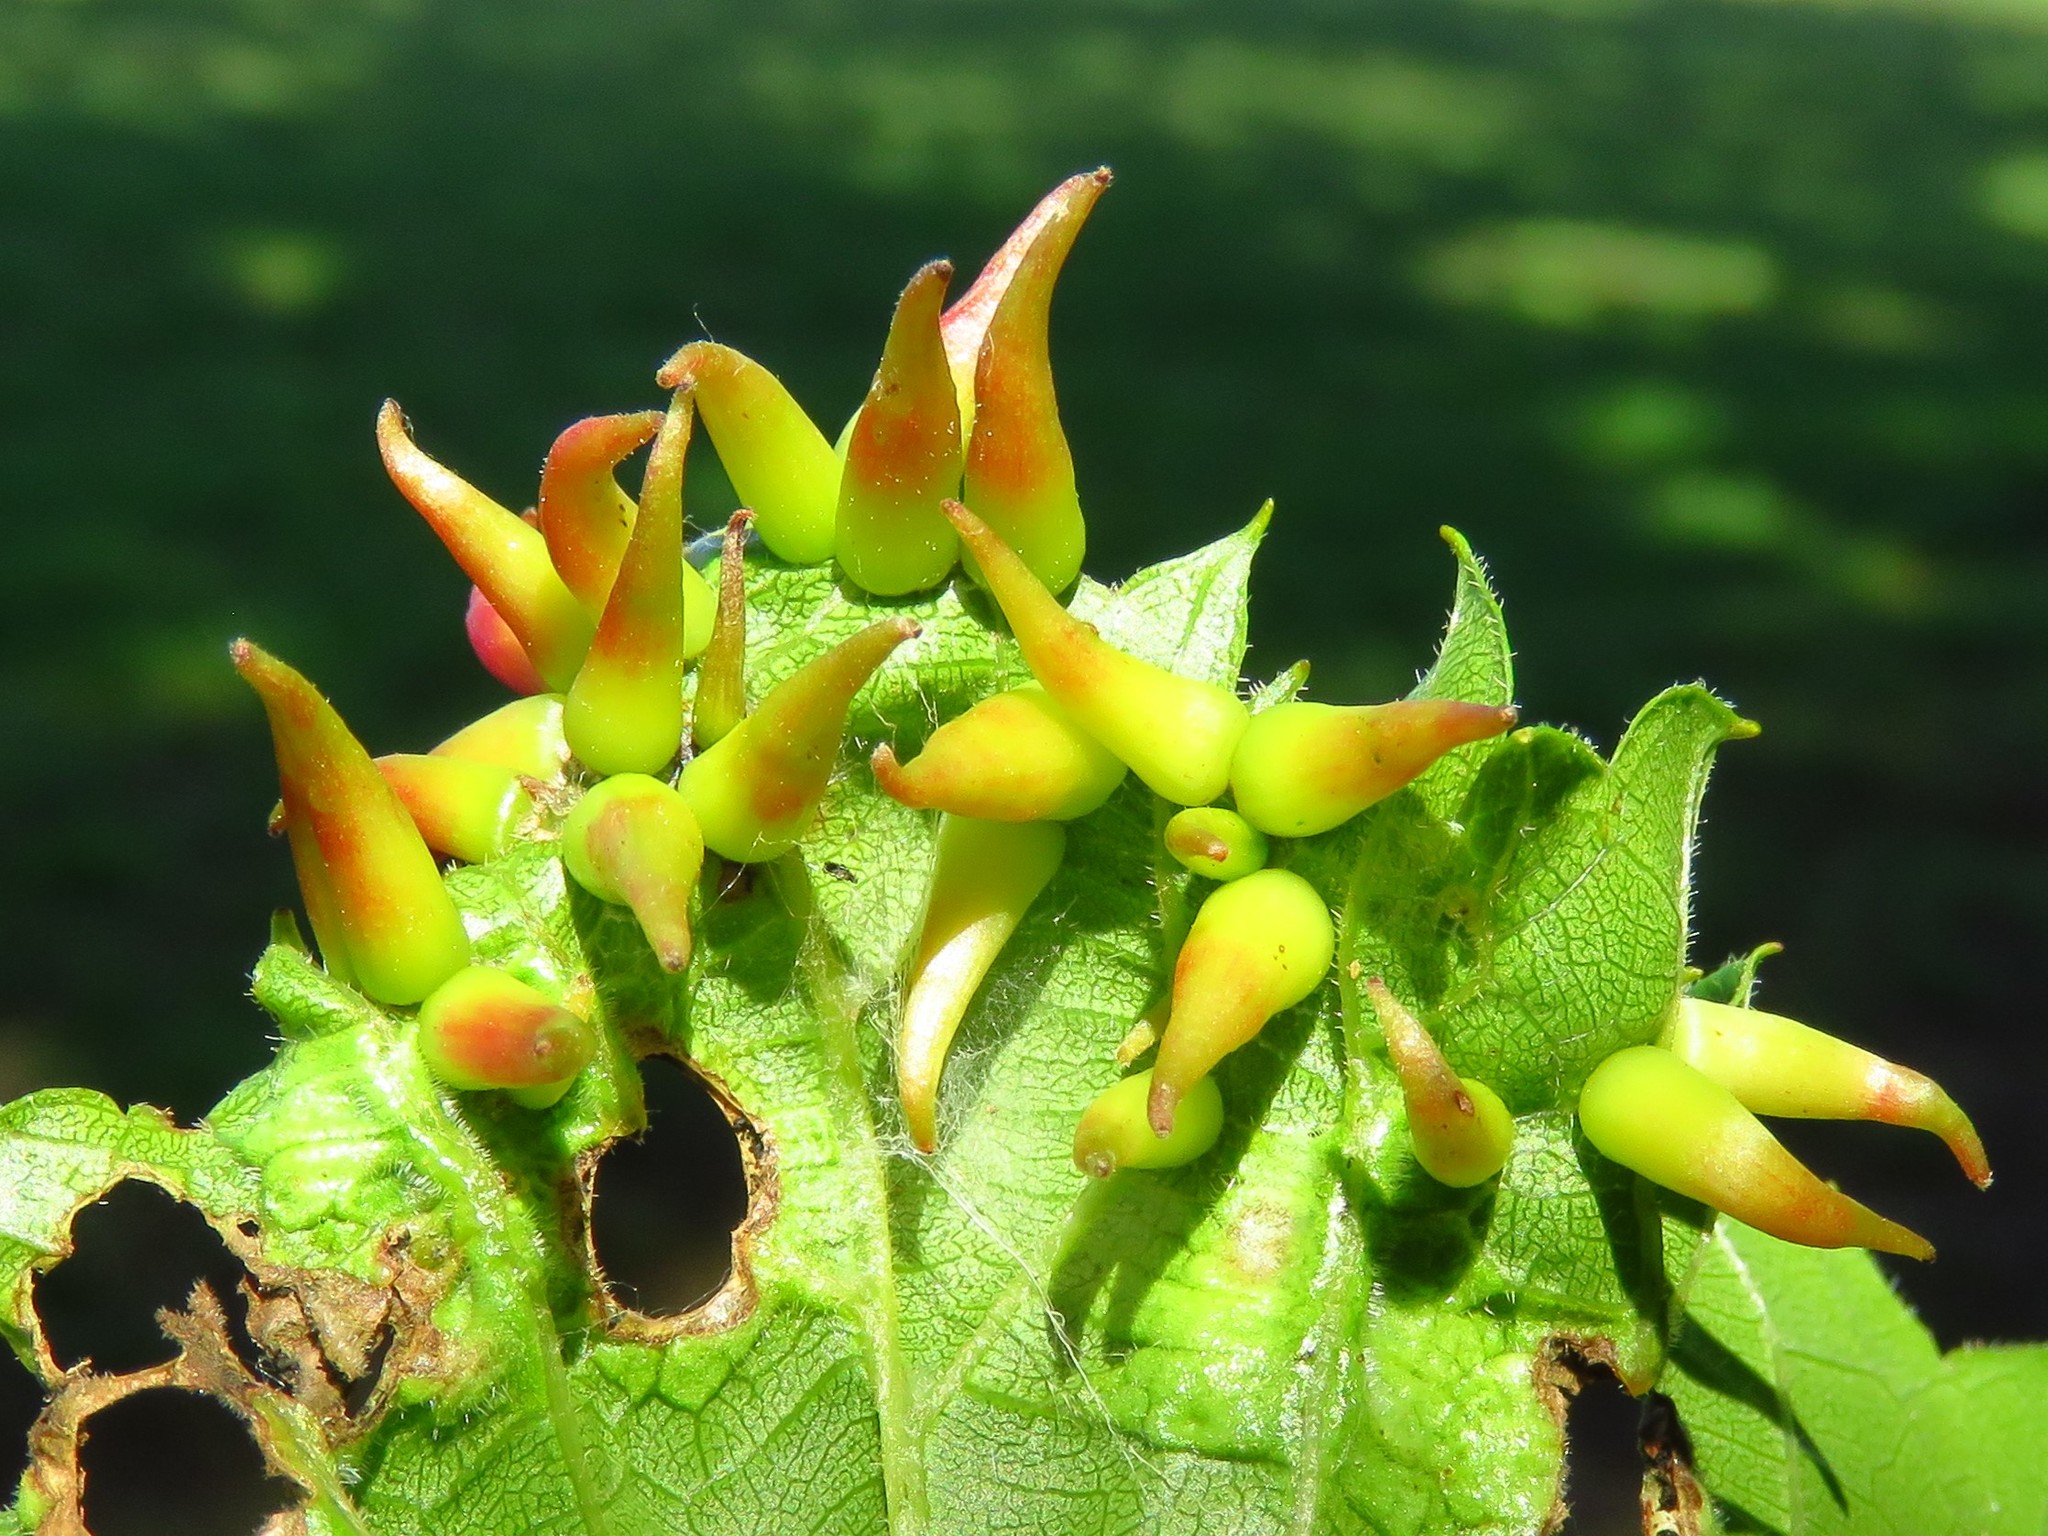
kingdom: Animalia
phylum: Arthropoda
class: Insecta
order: Diptera
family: Cecidomyiidae
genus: Ampelomyia
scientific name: Ampelomyia viticola
